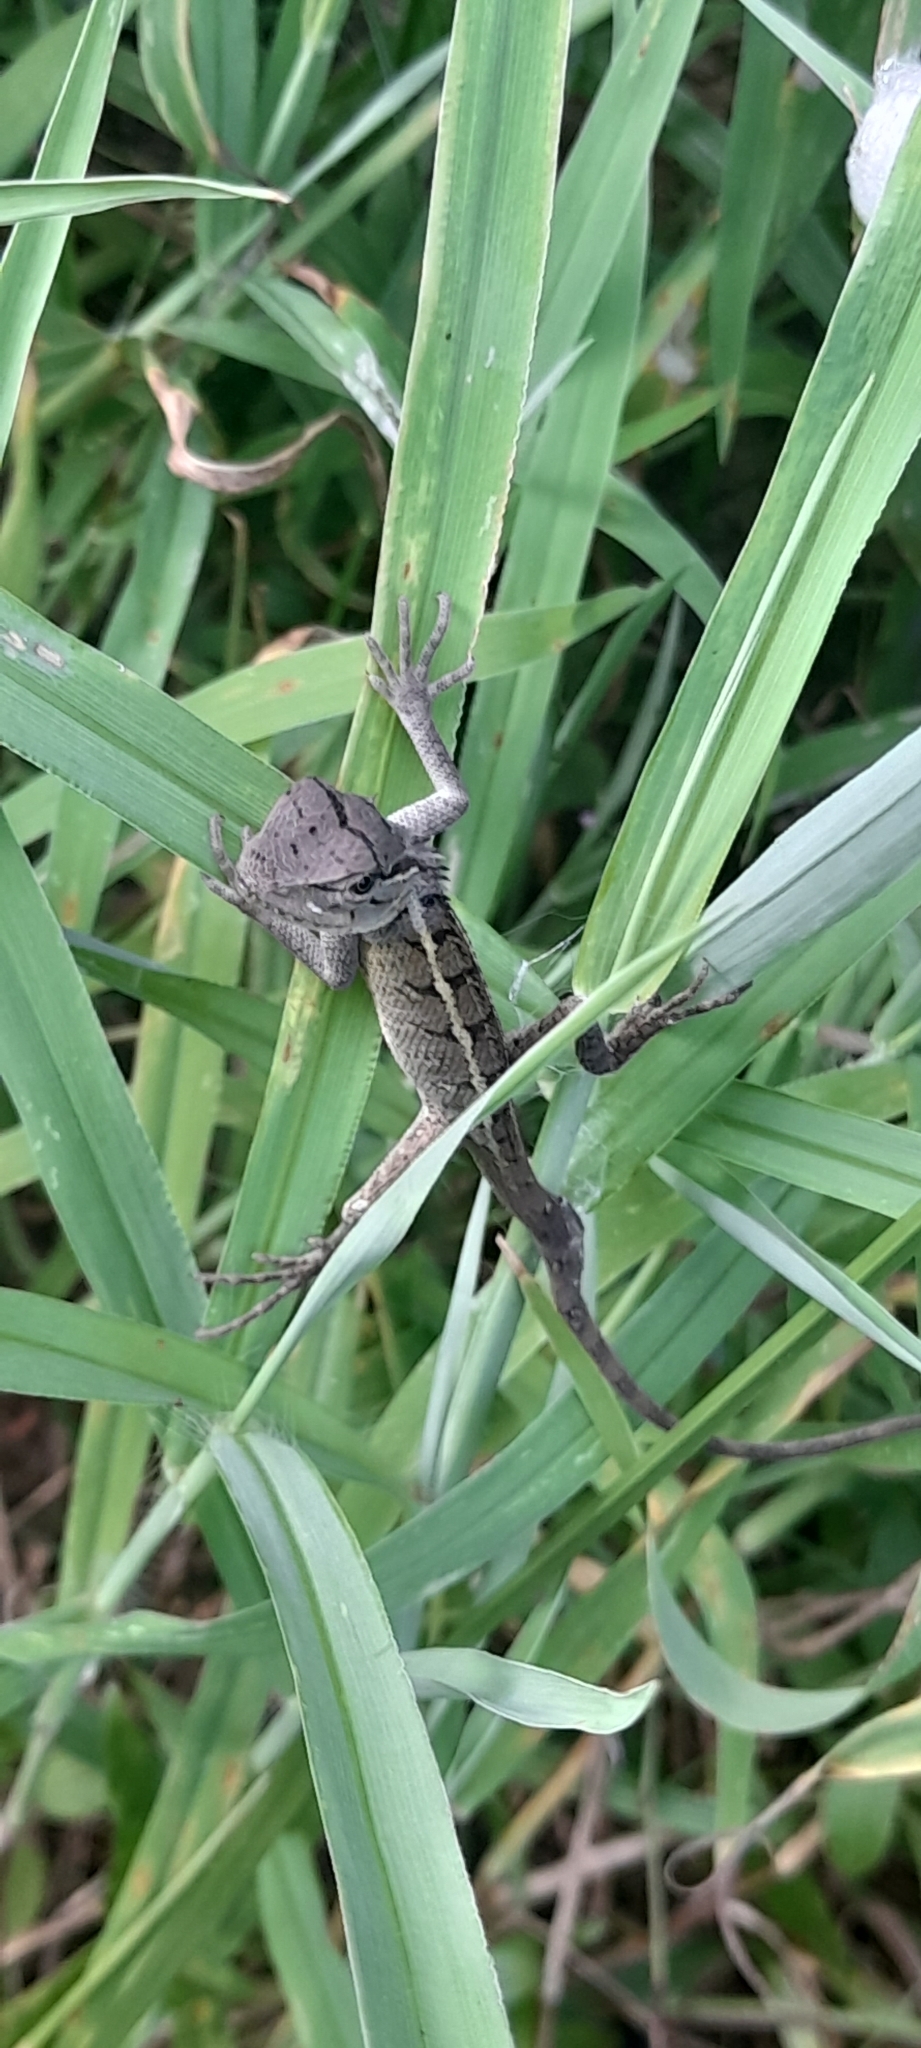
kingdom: Animalia
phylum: Chordata
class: Squamata
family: Agamidae
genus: Calotes
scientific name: Calotes versicolor
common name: Oriental garden lizard
